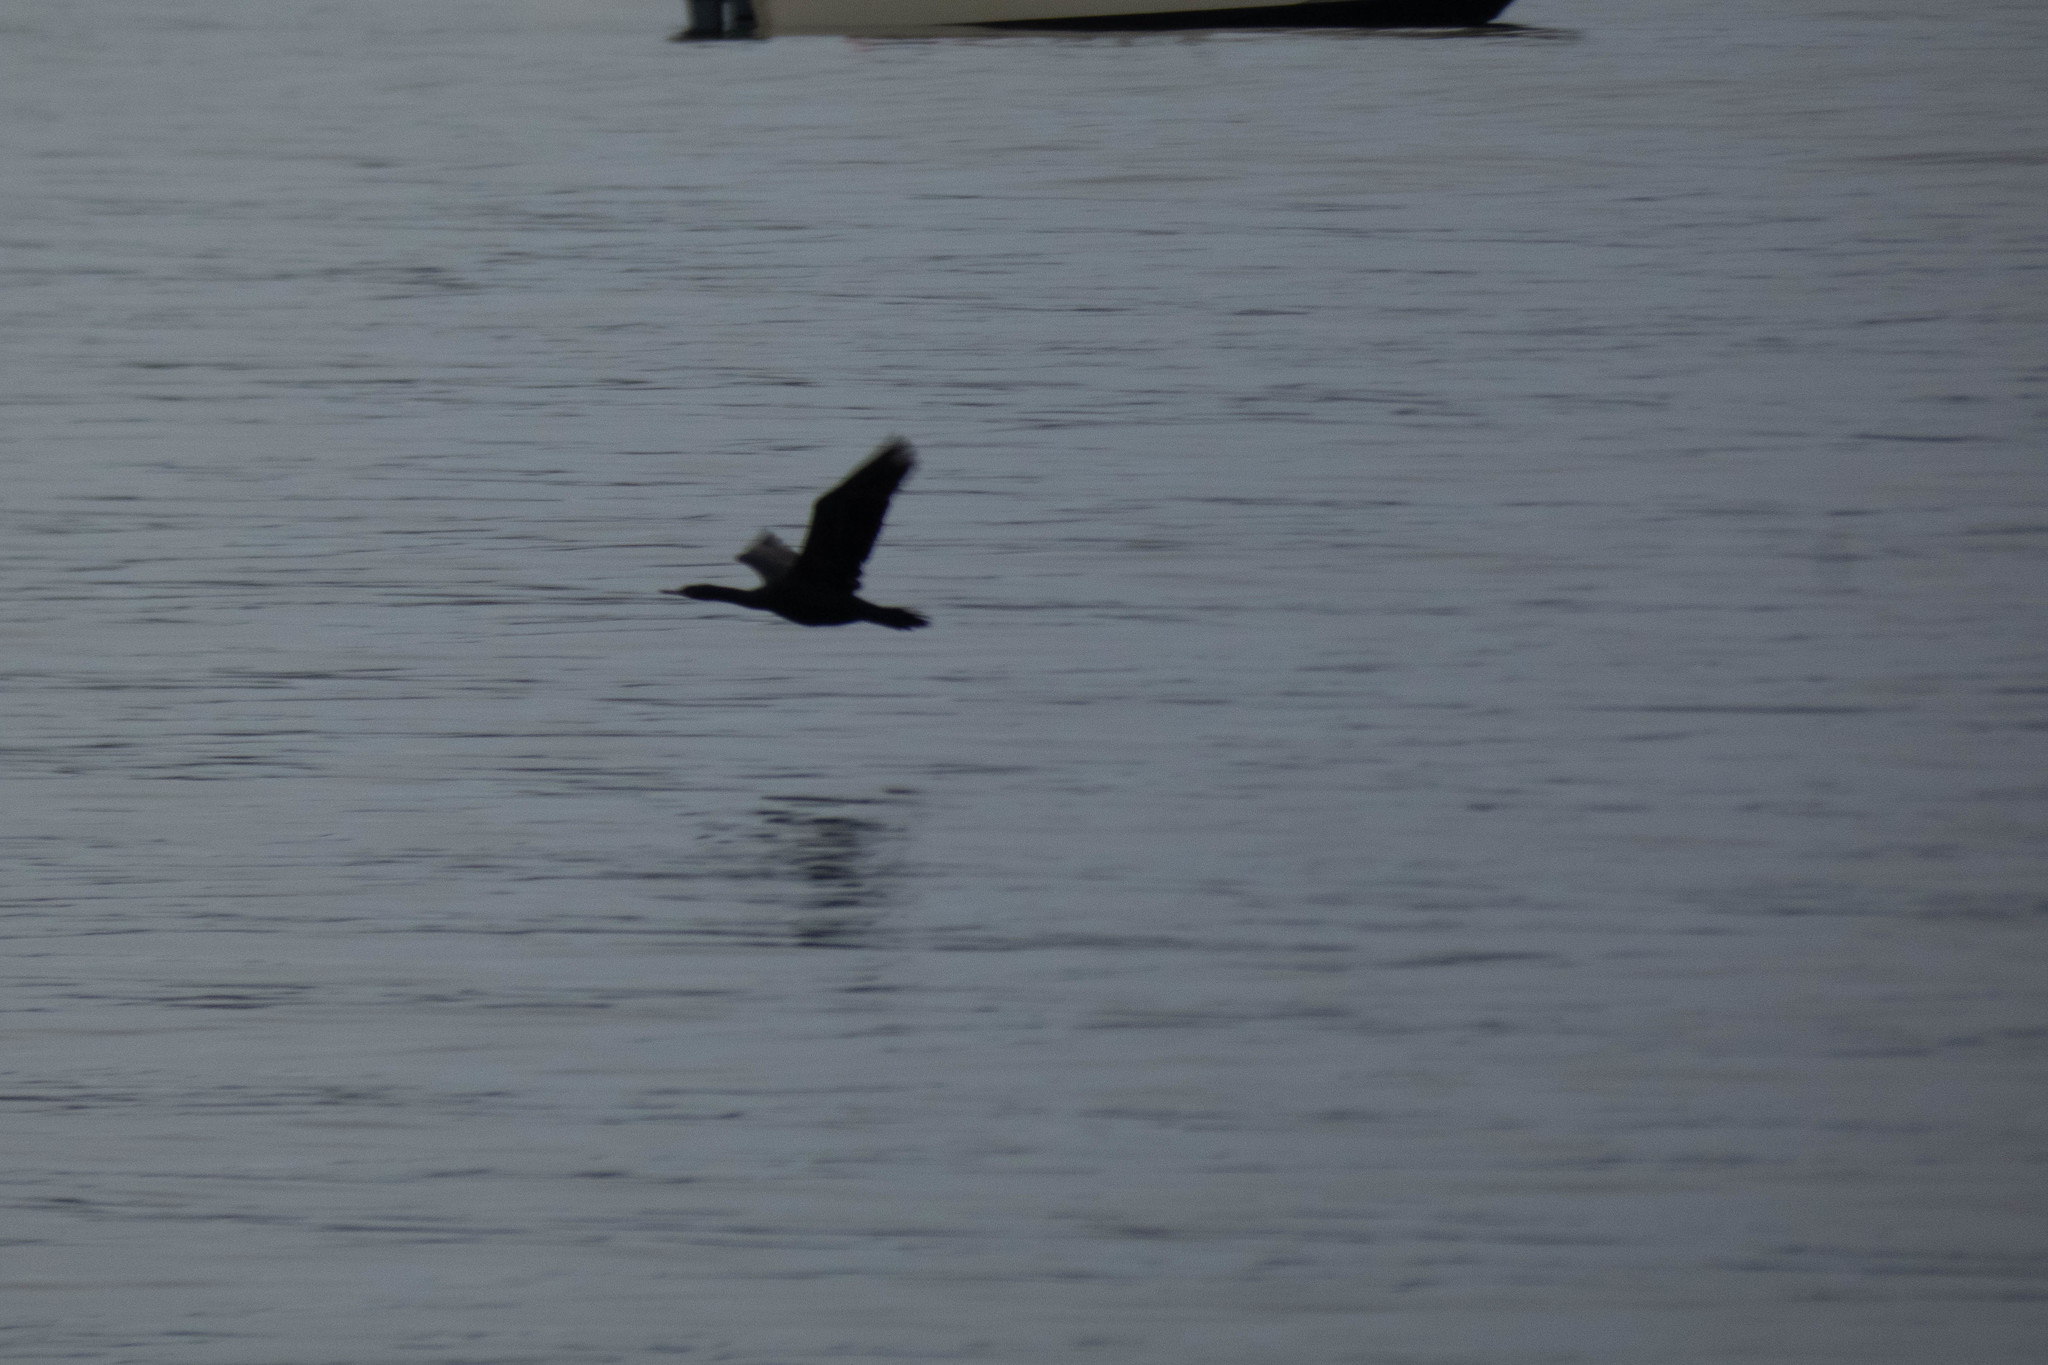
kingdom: Animalia
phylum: Chordata
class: Aves
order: Suliformes
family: Phalacrocoracidae
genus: Phalacrocorax
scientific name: Phalacrocorax pelagicus
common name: Pelagic cormorant
